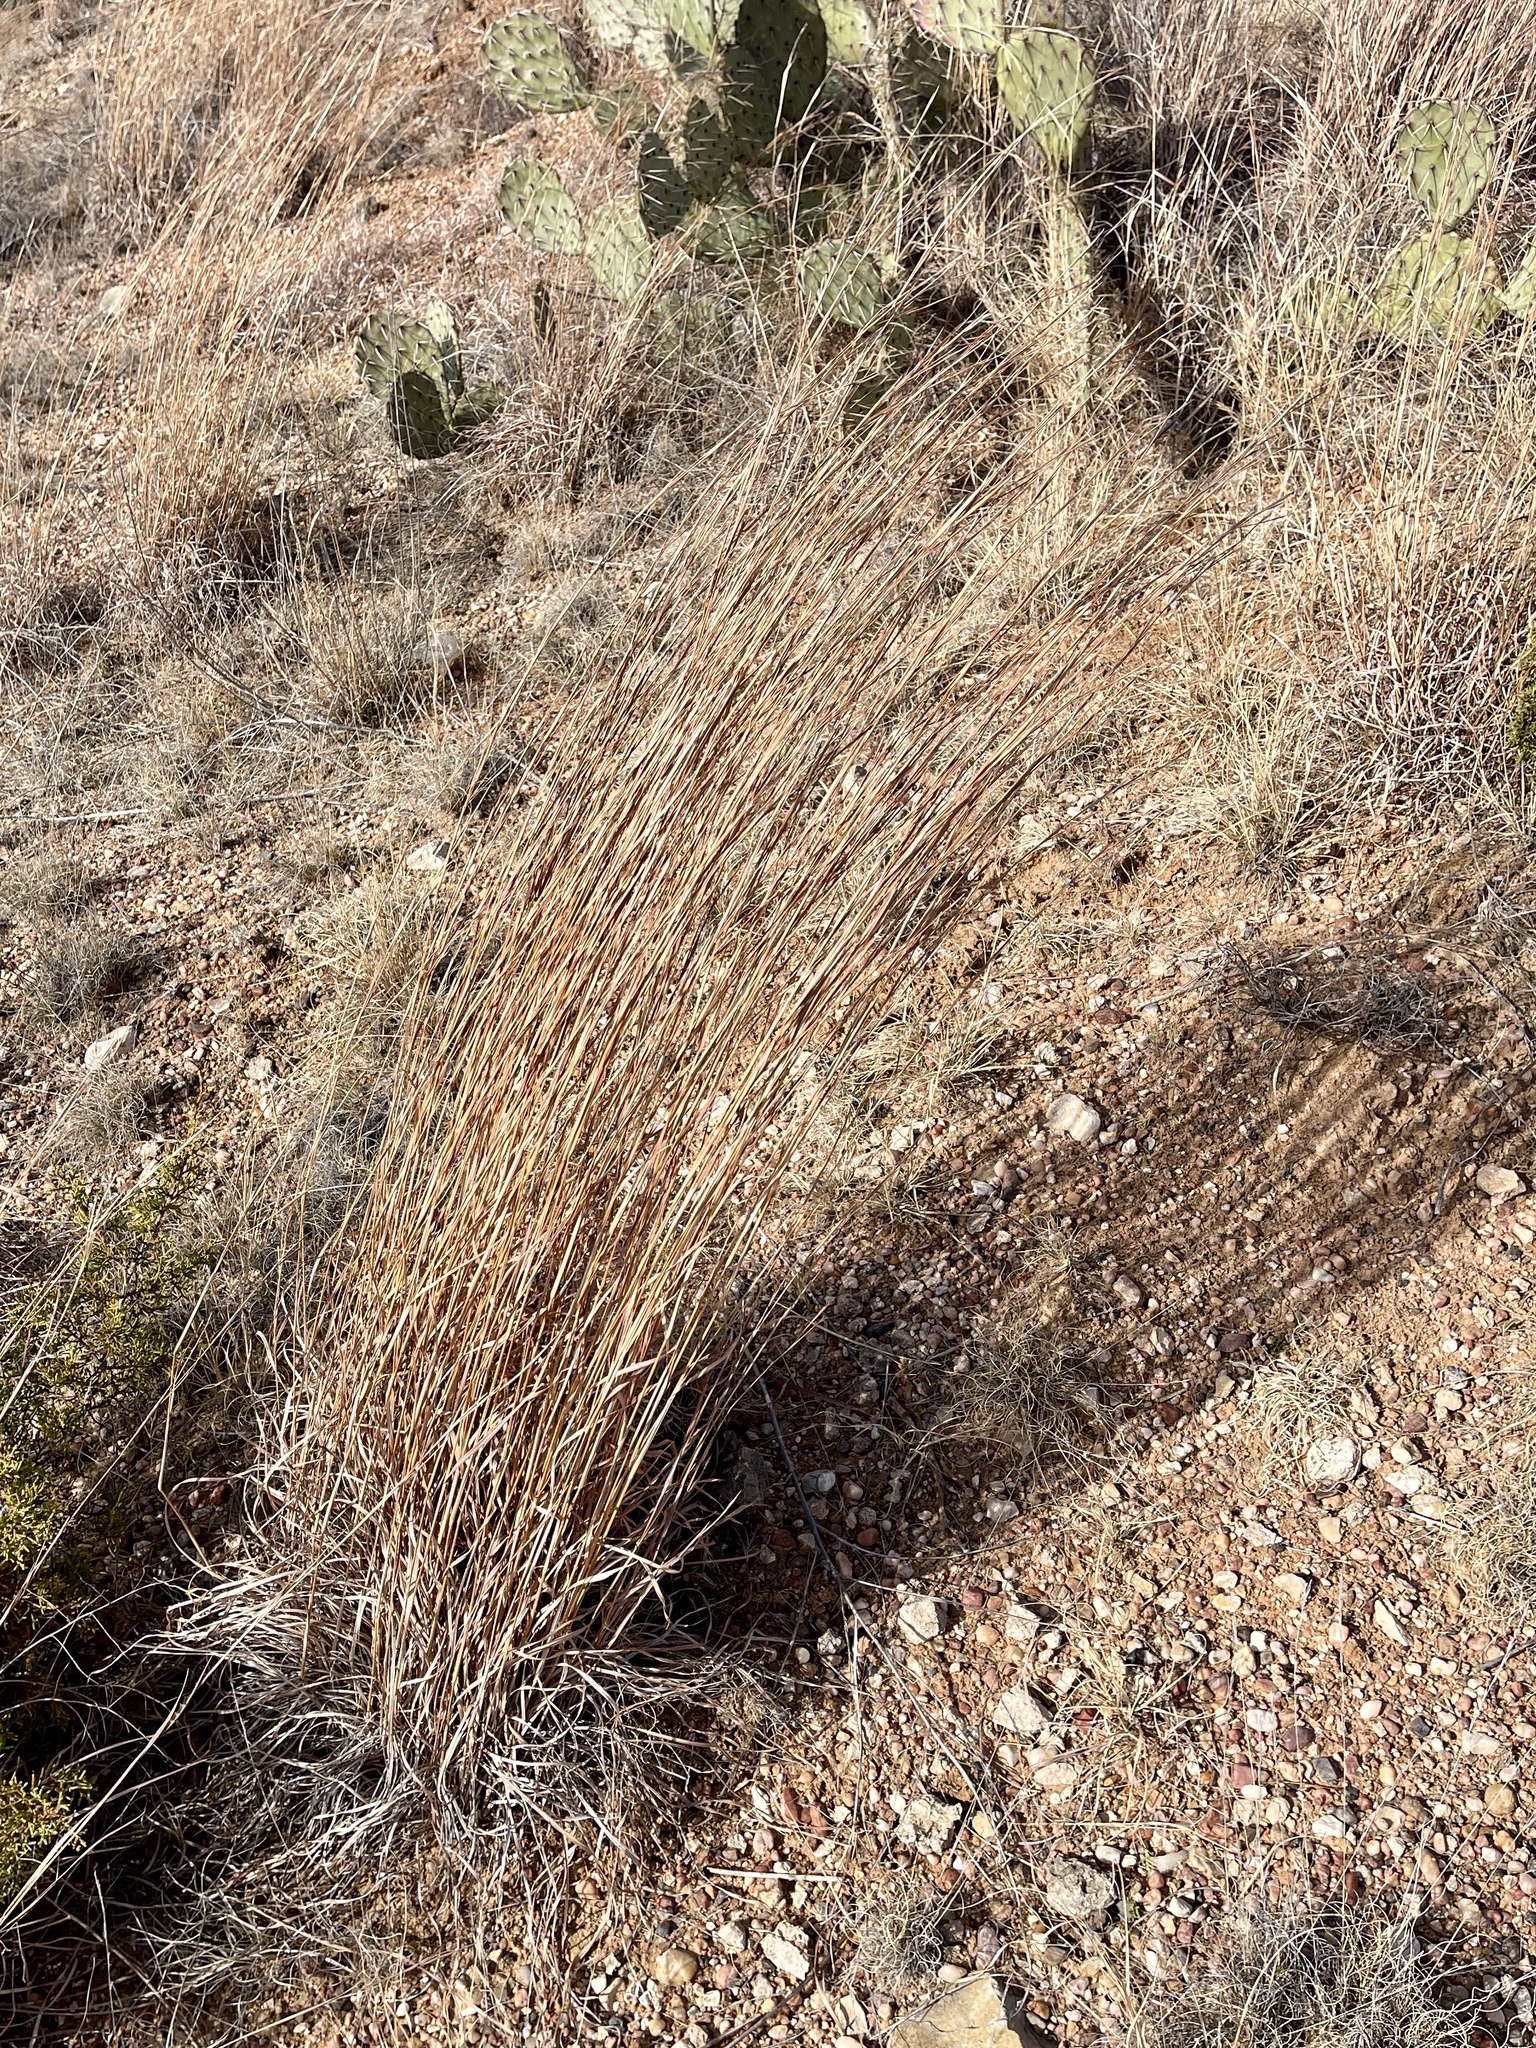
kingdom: Plantae
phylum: Tracheophyta
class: Liliopsida
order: Poales
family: Poaceae
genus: Schizachyrium
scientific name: Schizachyrium scoparium
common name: Little bluestem
